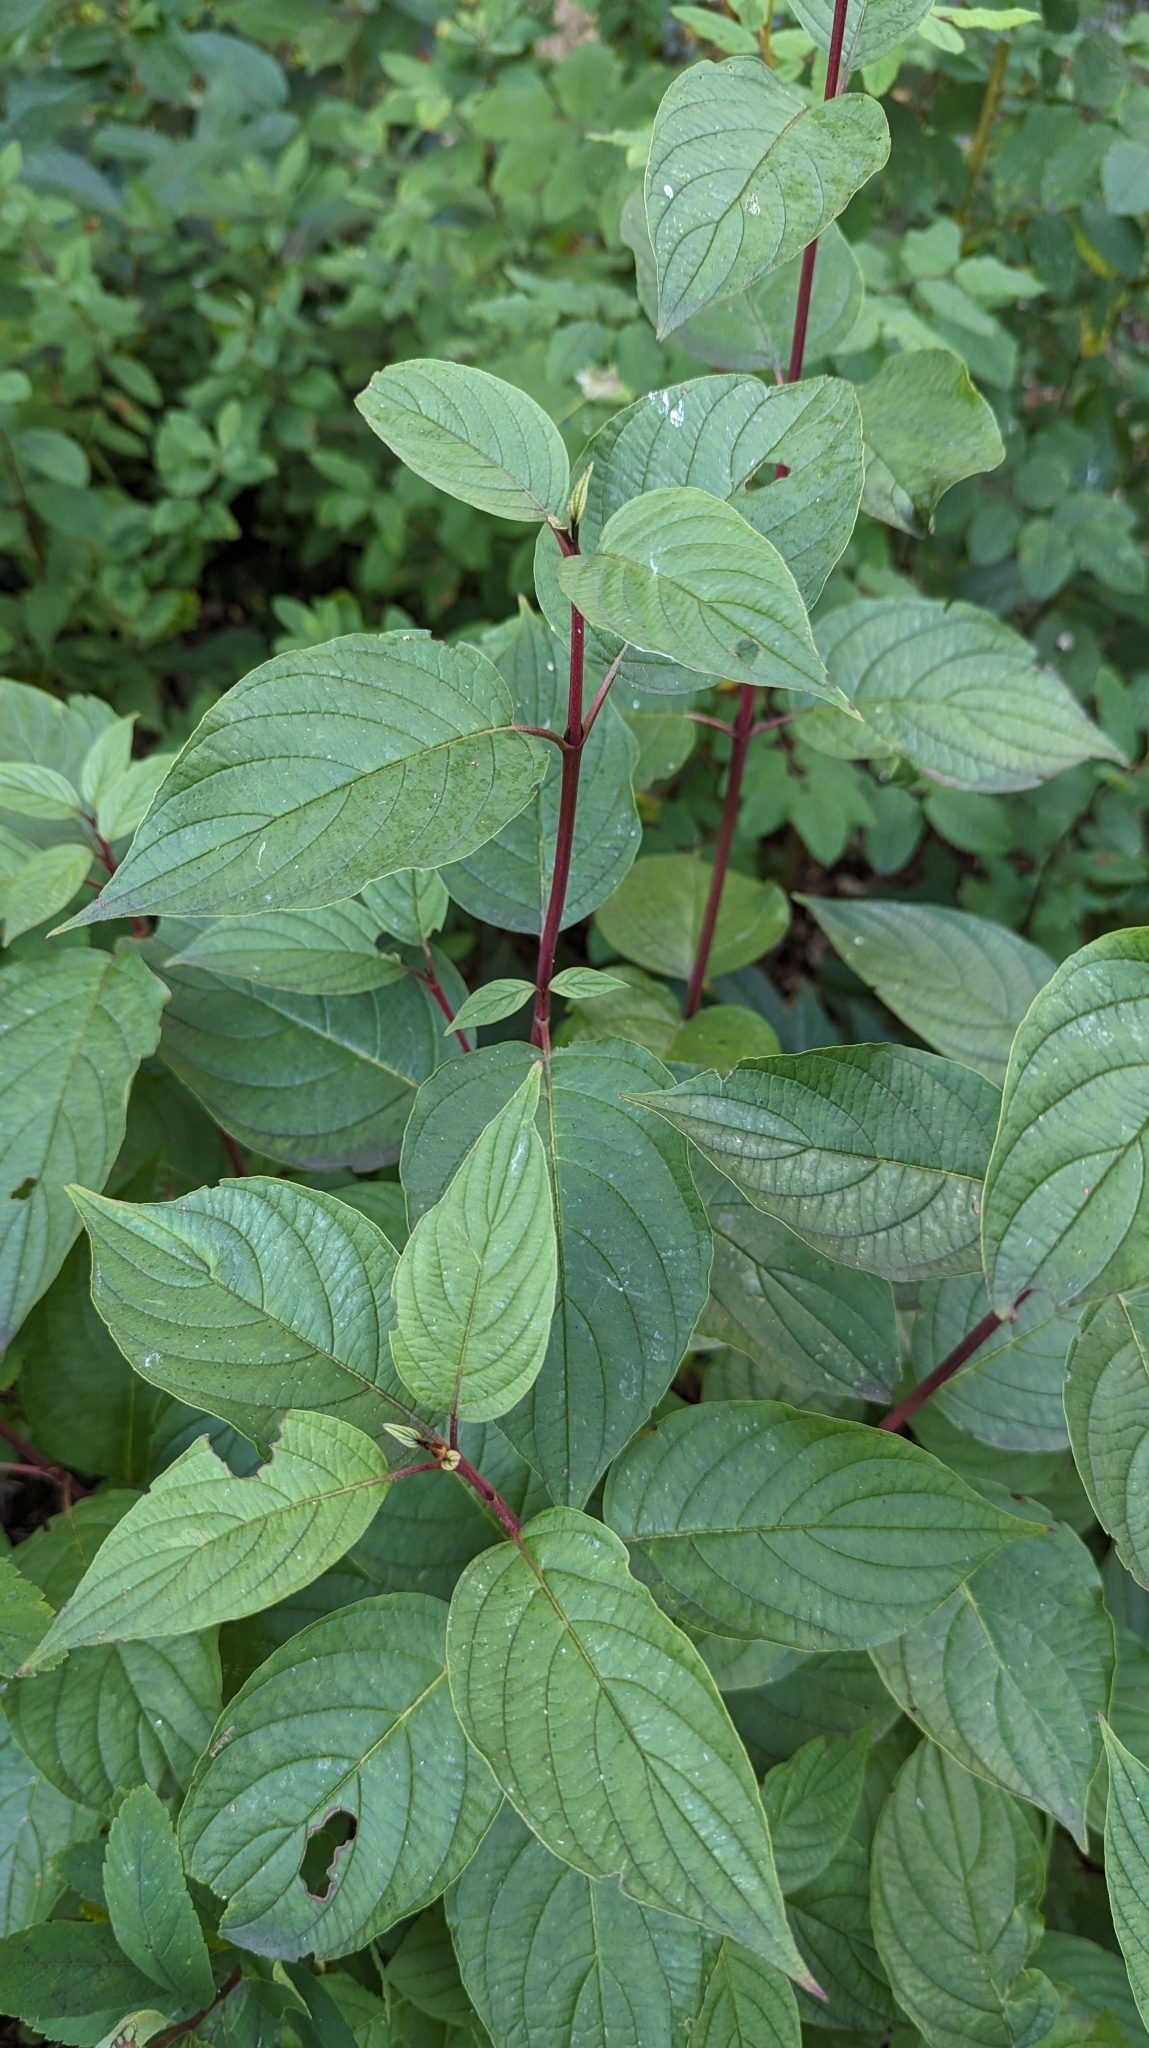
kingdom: Plantae
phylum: Tracheophyta
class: Magnoliopsida
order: Cornales
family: Cornaceae
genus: Cornus
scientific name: Cornus sericea
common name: Red-osier dogwood
